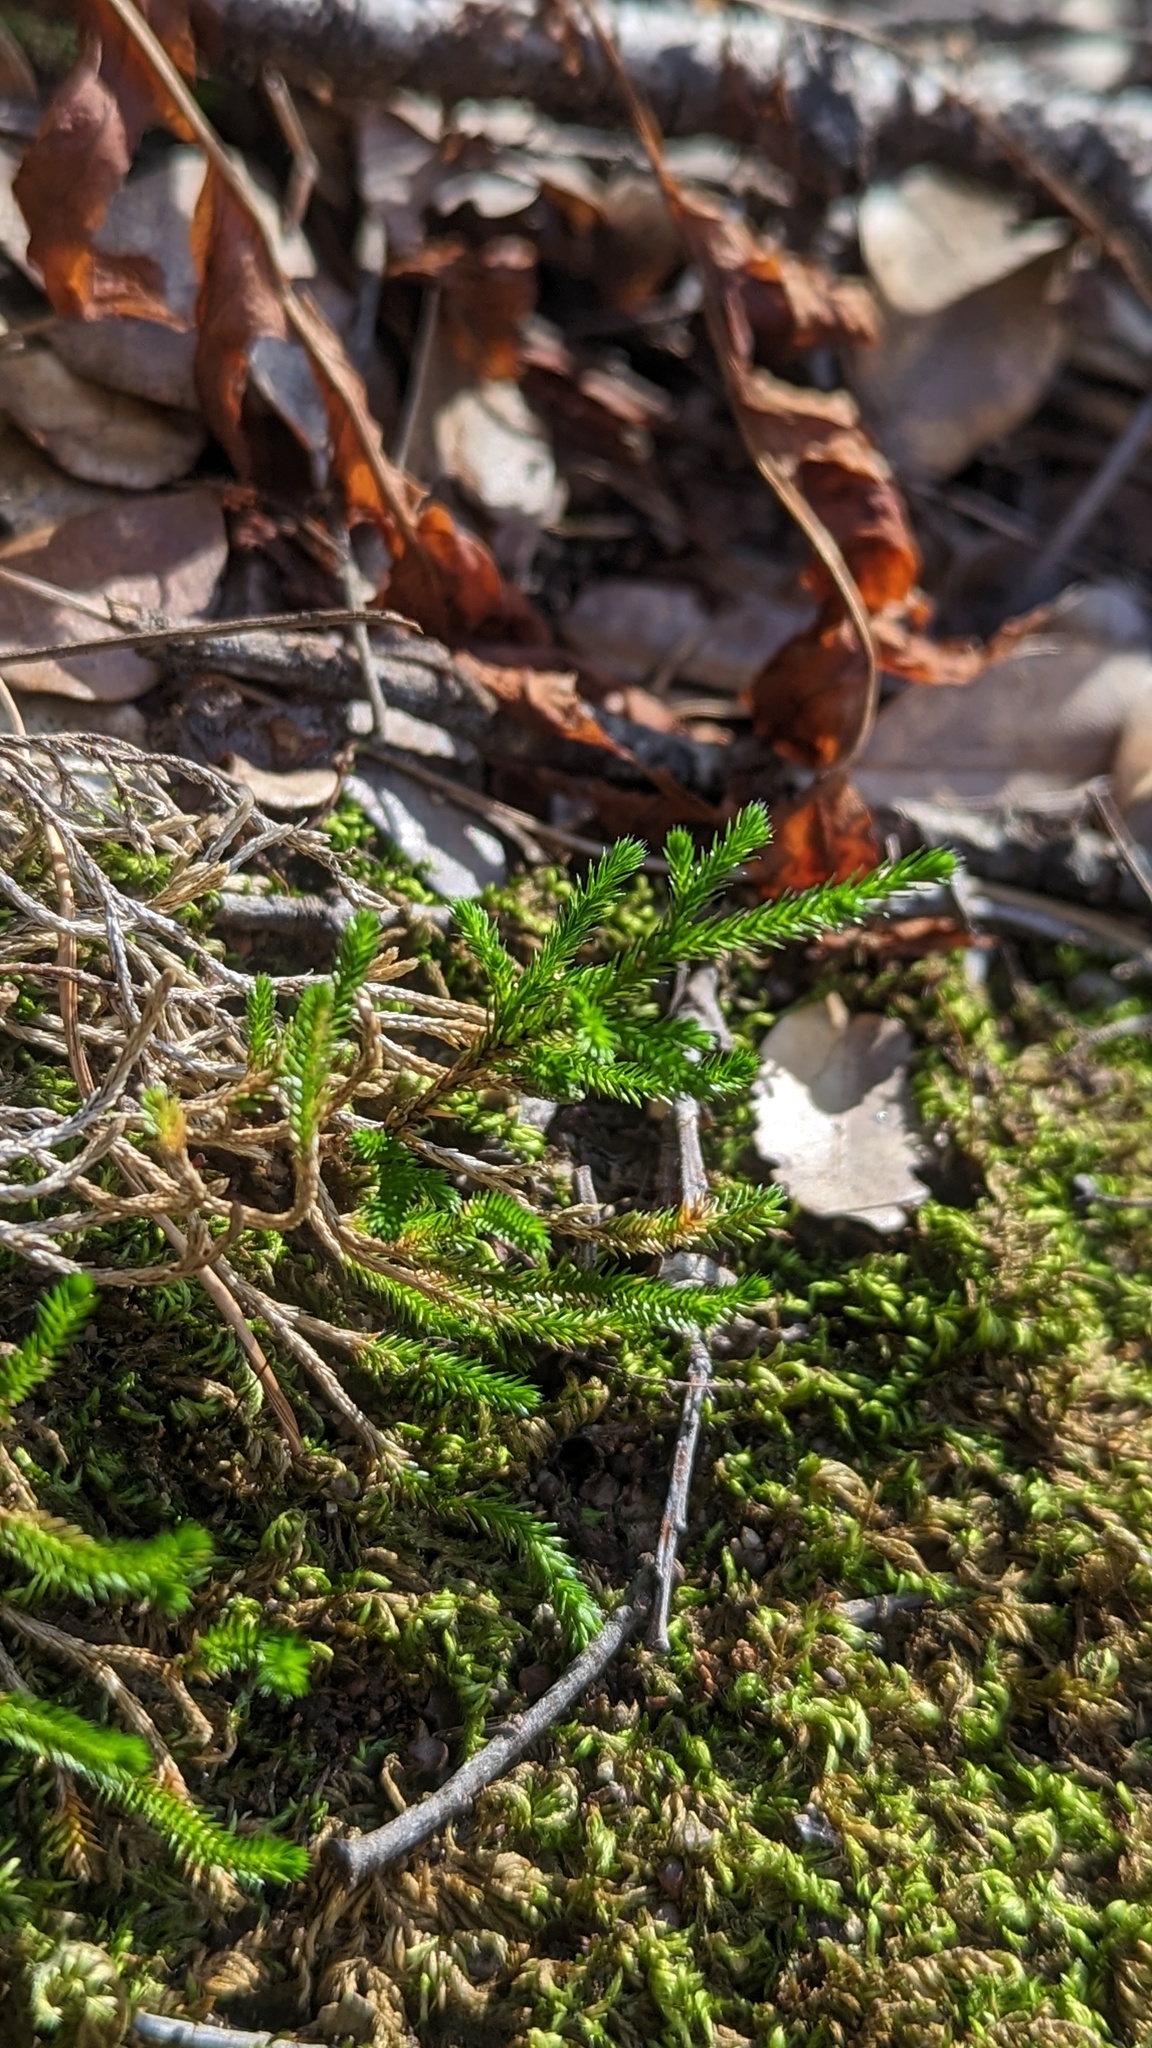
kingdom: Plantae
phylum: Tracheophyta
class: Lycopodiopsida
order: Selaginellales
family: Selaginellaceae
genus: Selaginella
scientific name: Selaginella bigelovii
